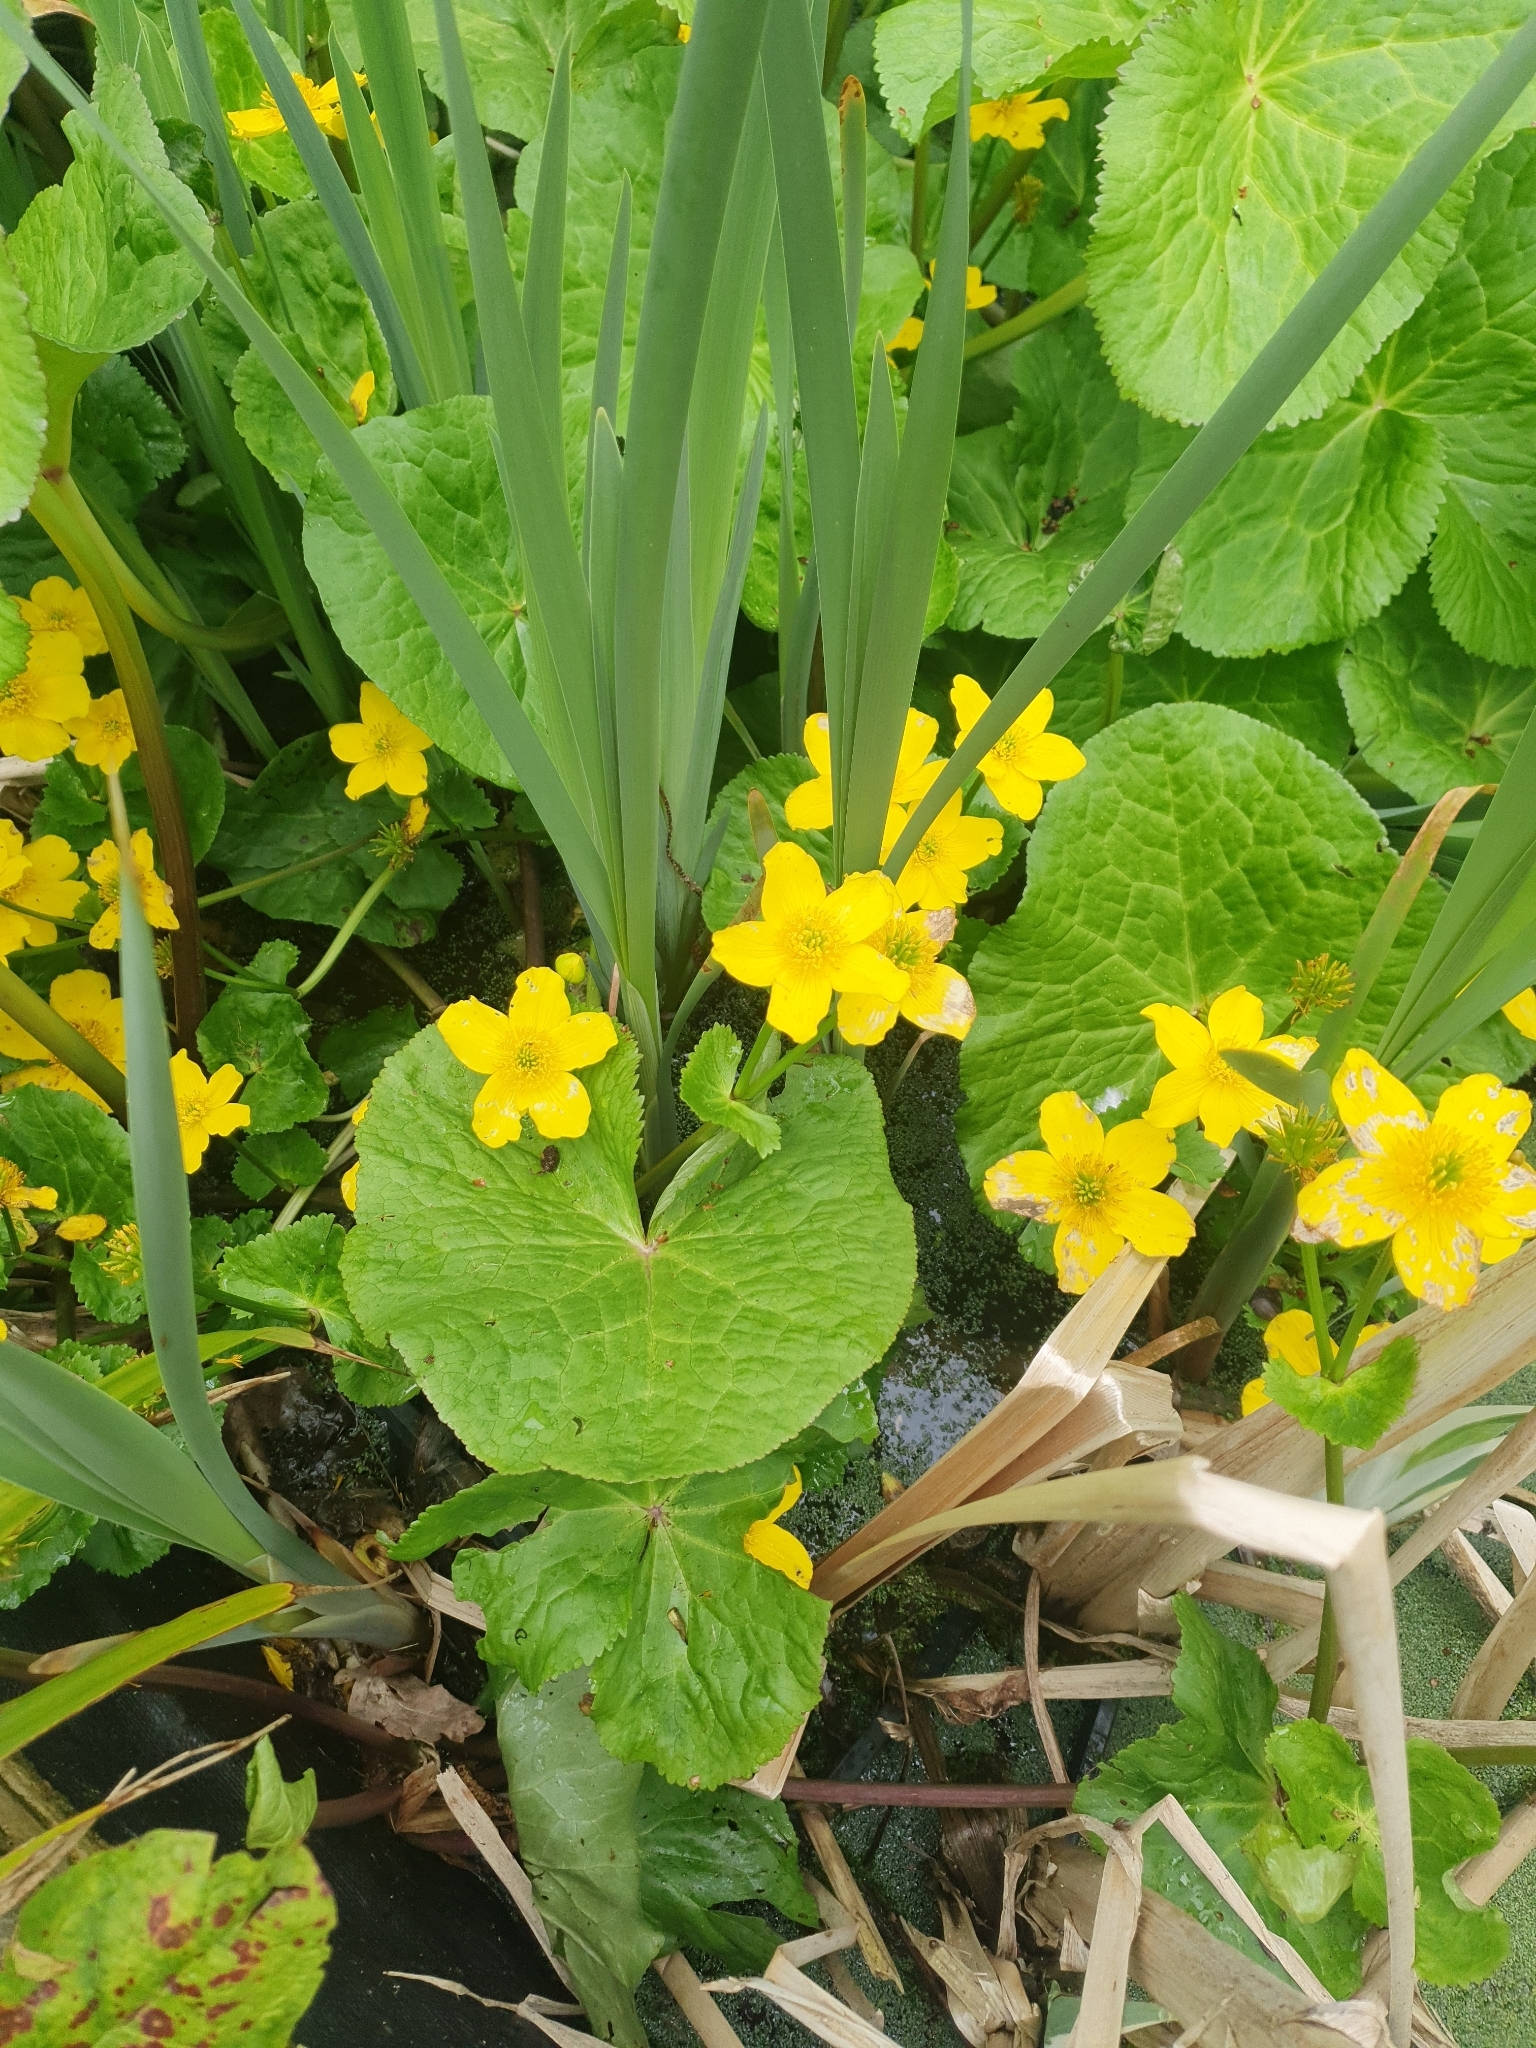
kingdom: Plantae
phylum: Tracheophyta
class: Magnoliopsida
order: Ranunculales
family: Ranunculaceae
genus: Caltha
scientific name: Caltha palustris
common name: Marsh marigold
